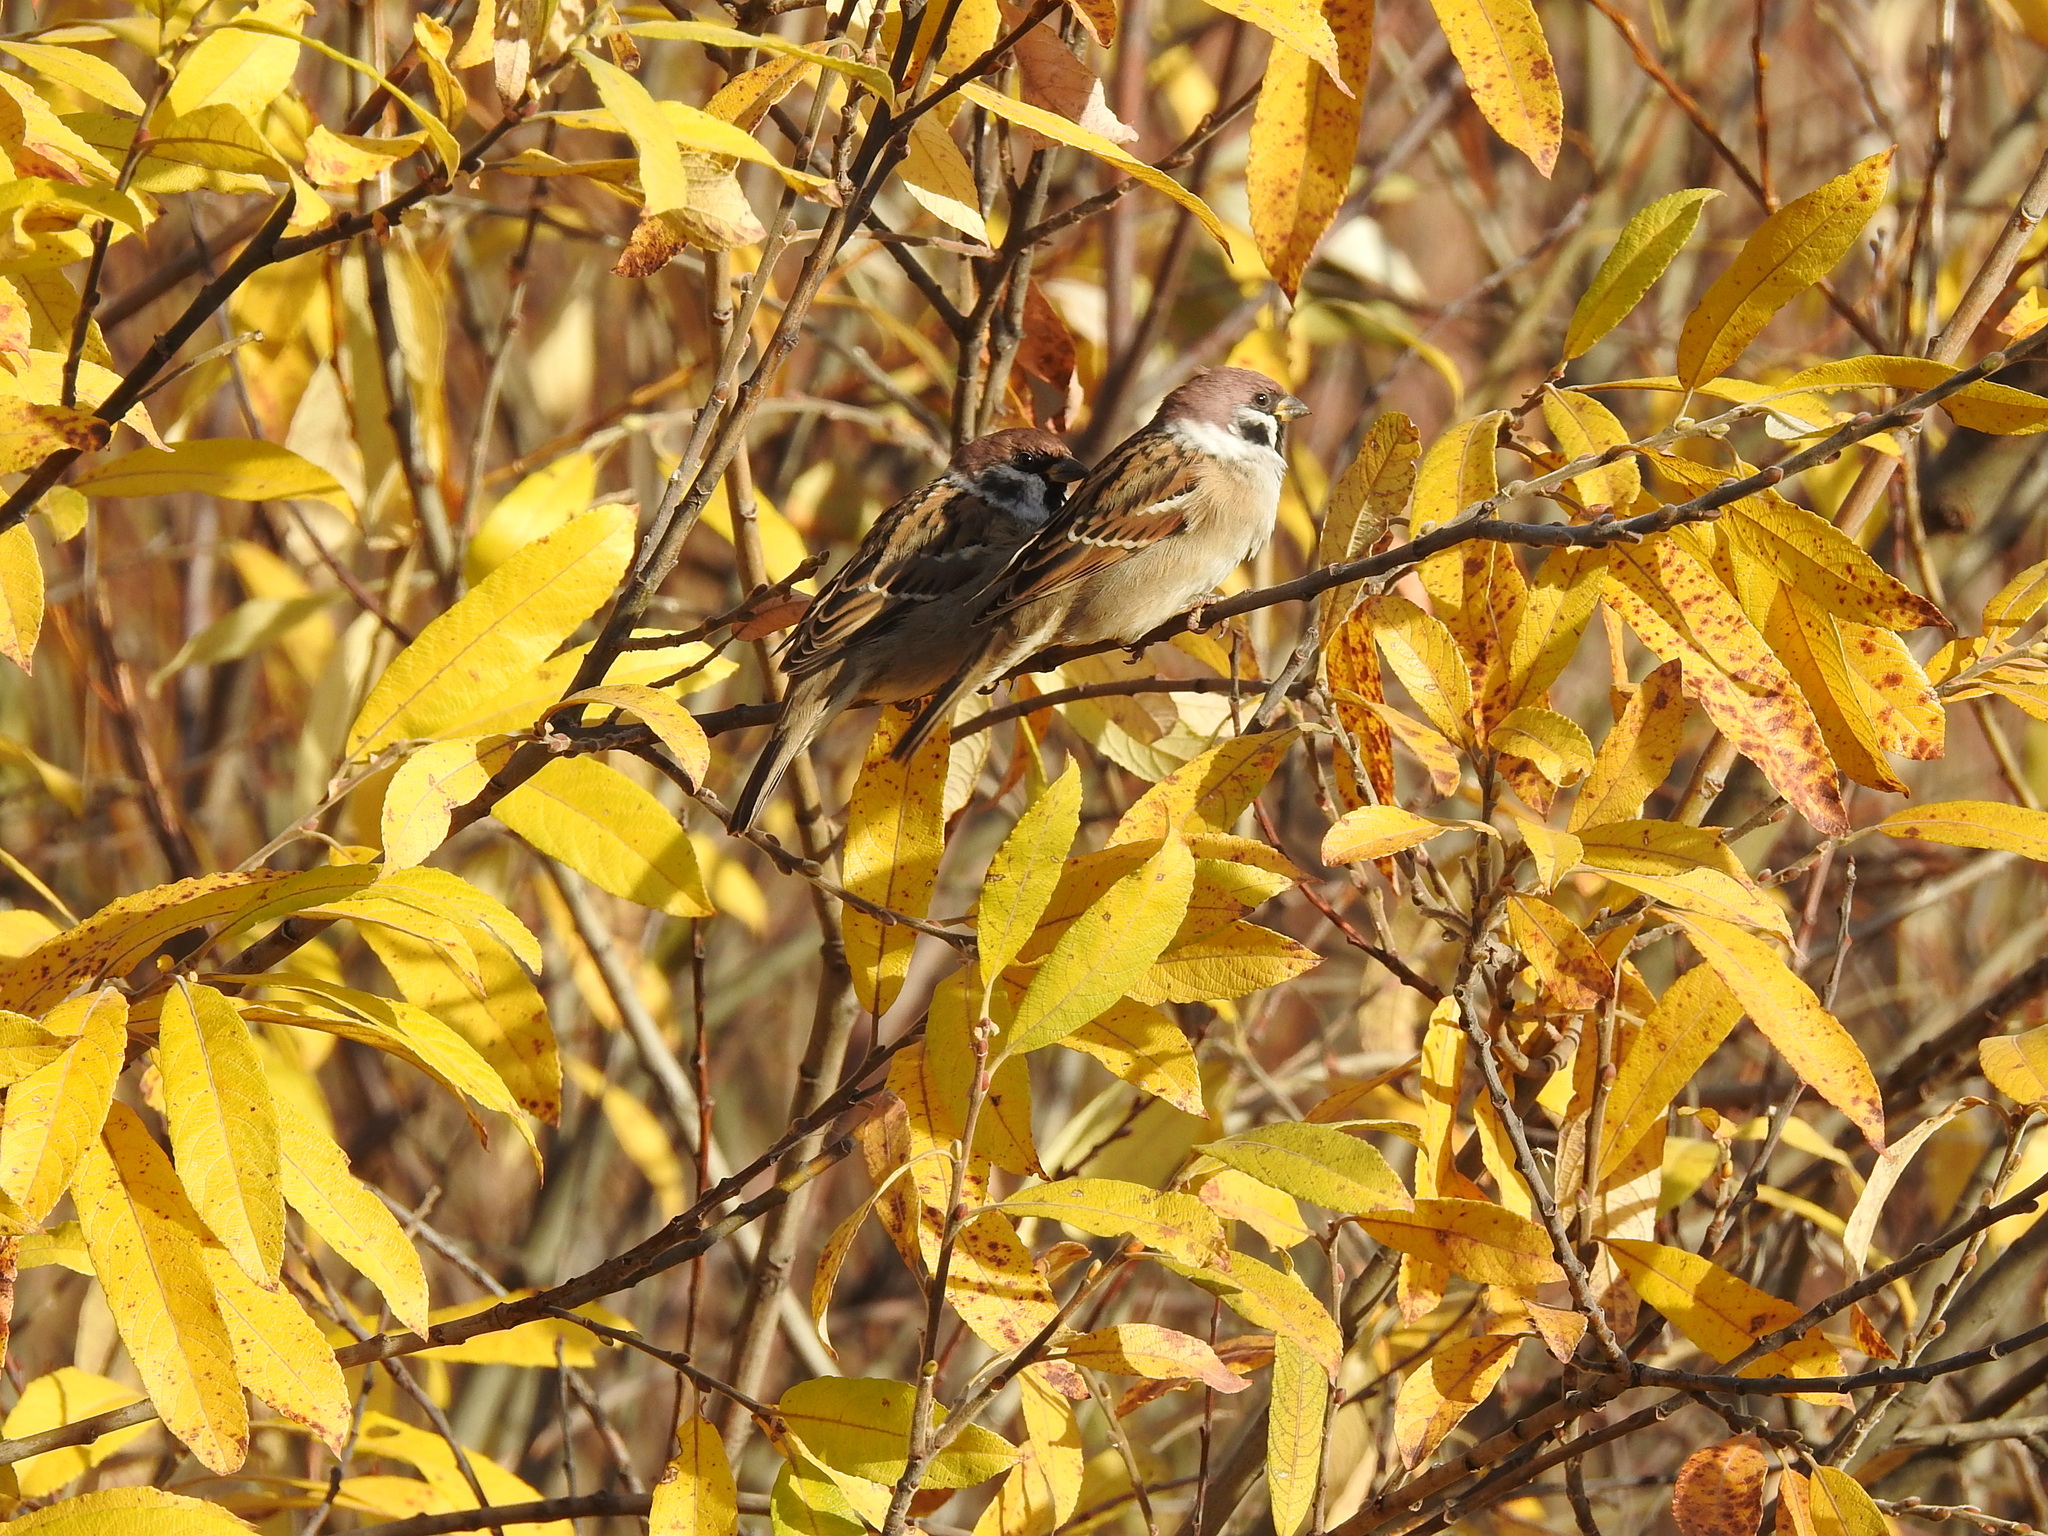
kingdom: Animalia
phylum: Chordata
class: Aves
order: Passeriformes
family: Passeridae
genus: Passer
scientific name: Passer montanus
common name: Eurasian tree sparrow
